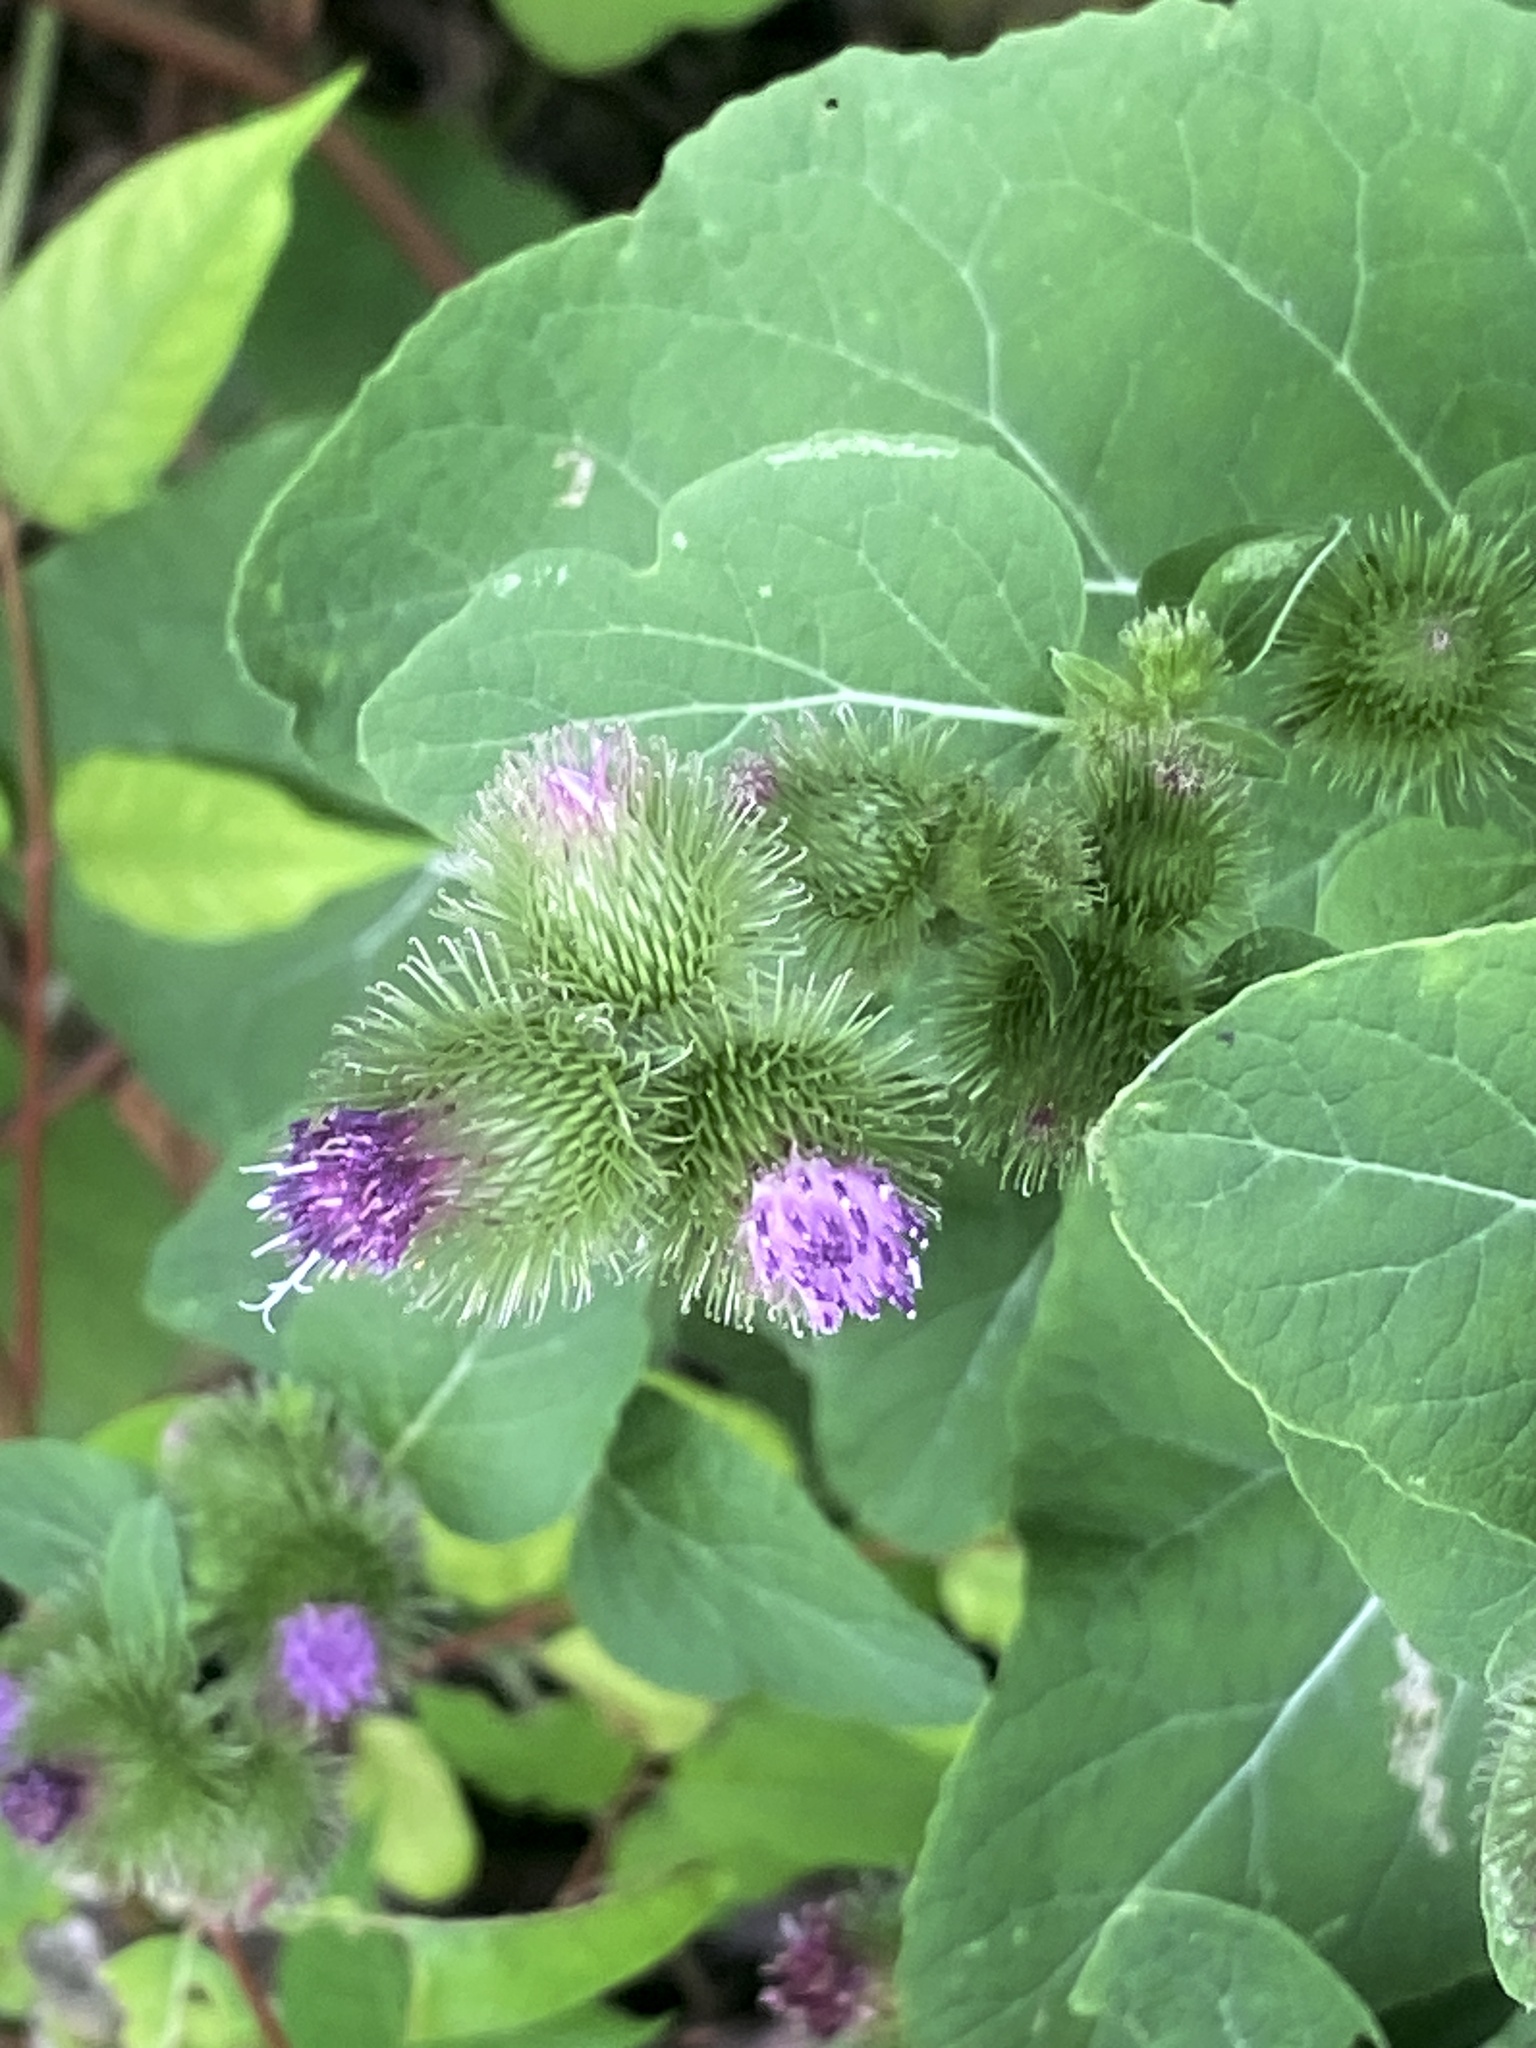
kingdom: Plantae
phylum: Tracheophyta
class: Magnoliopsida
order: Asterales
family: Asteraceae
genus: Arctium
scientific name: Arctium minus
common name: Lesser burdock
